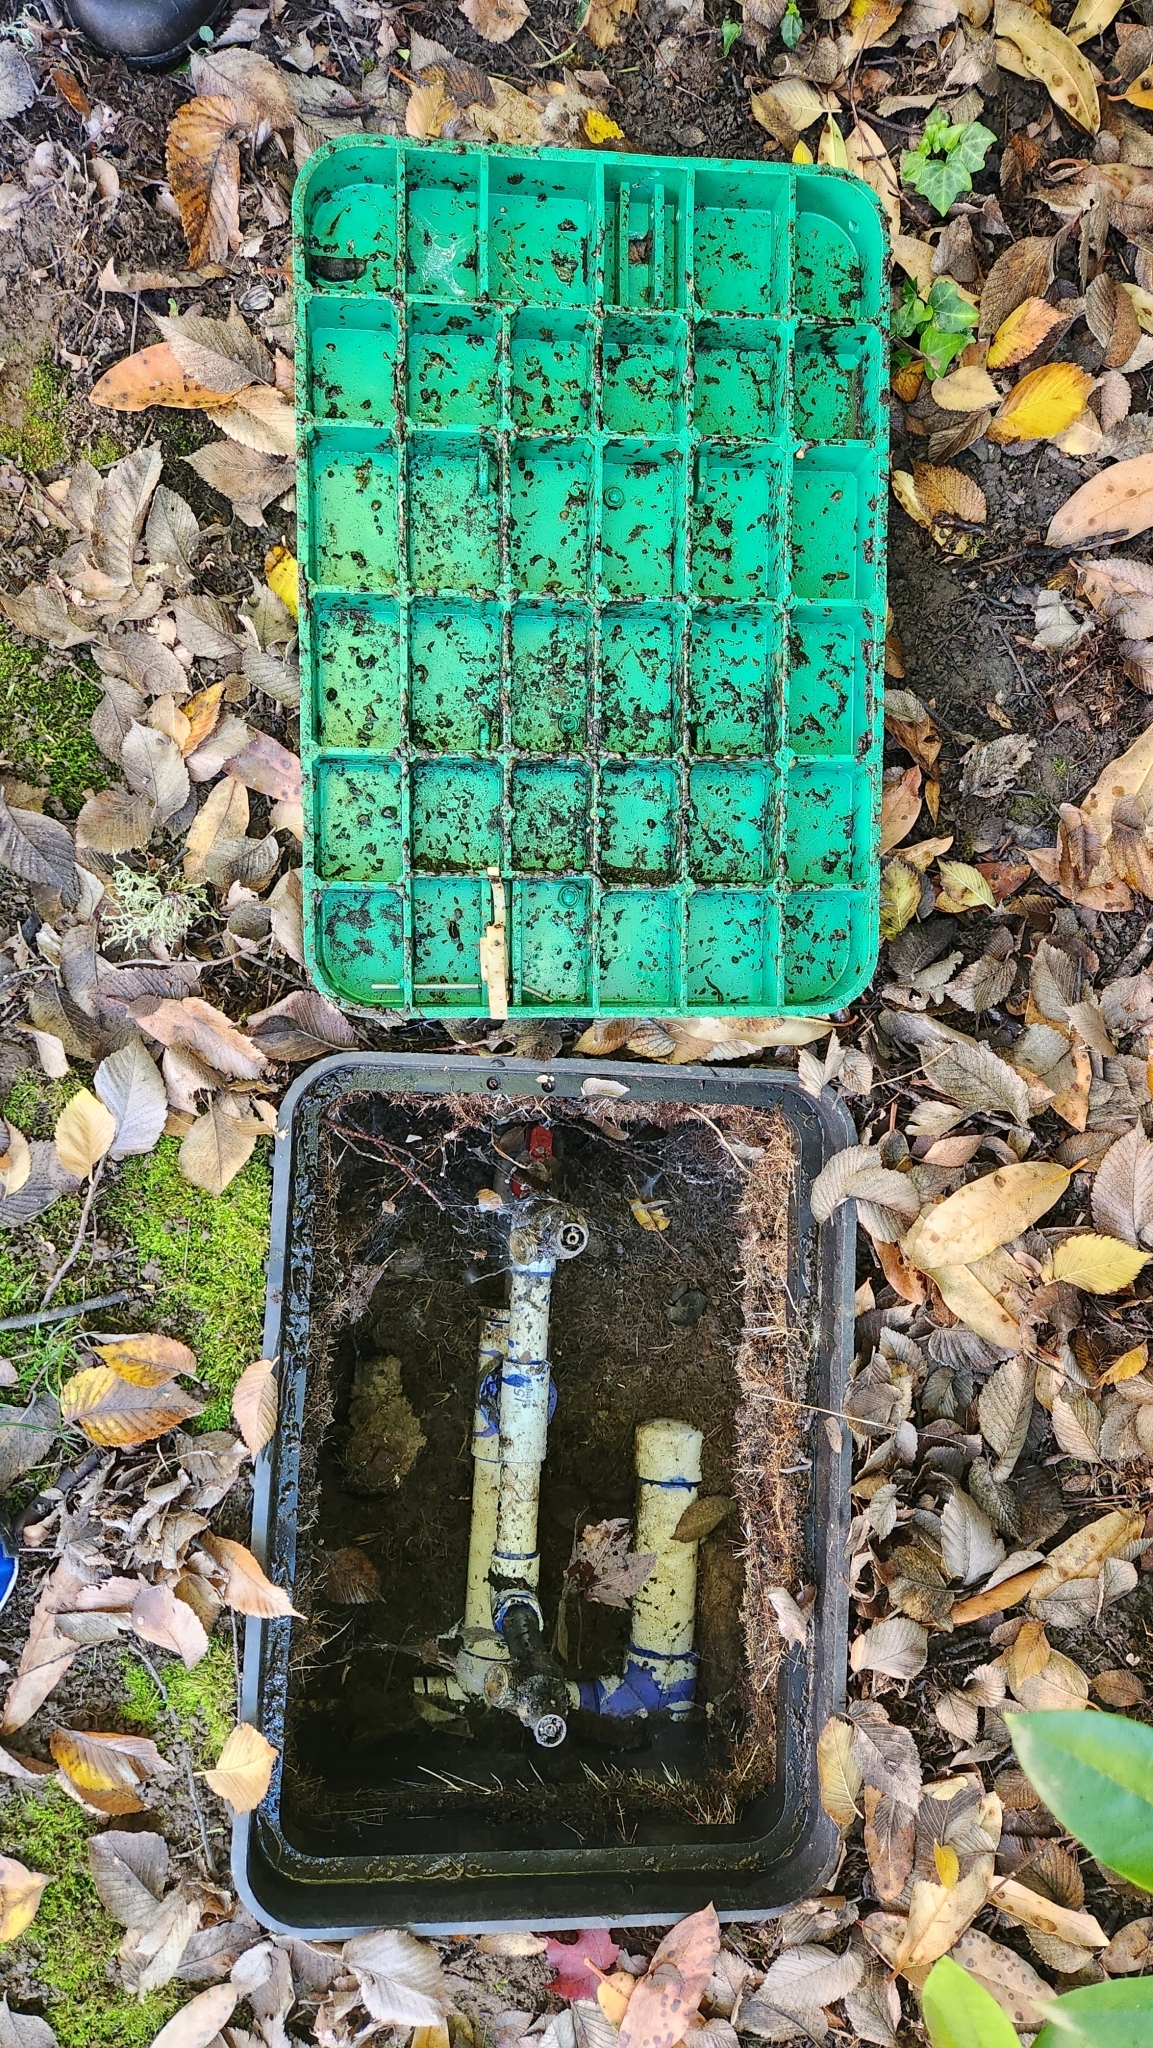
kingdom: Animalia
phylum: Mollusca
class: Gastropoda
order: Stylommatophora
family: Limacidae
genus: Limacus
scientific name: Limacus flavus
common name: Yellow gardenslug
